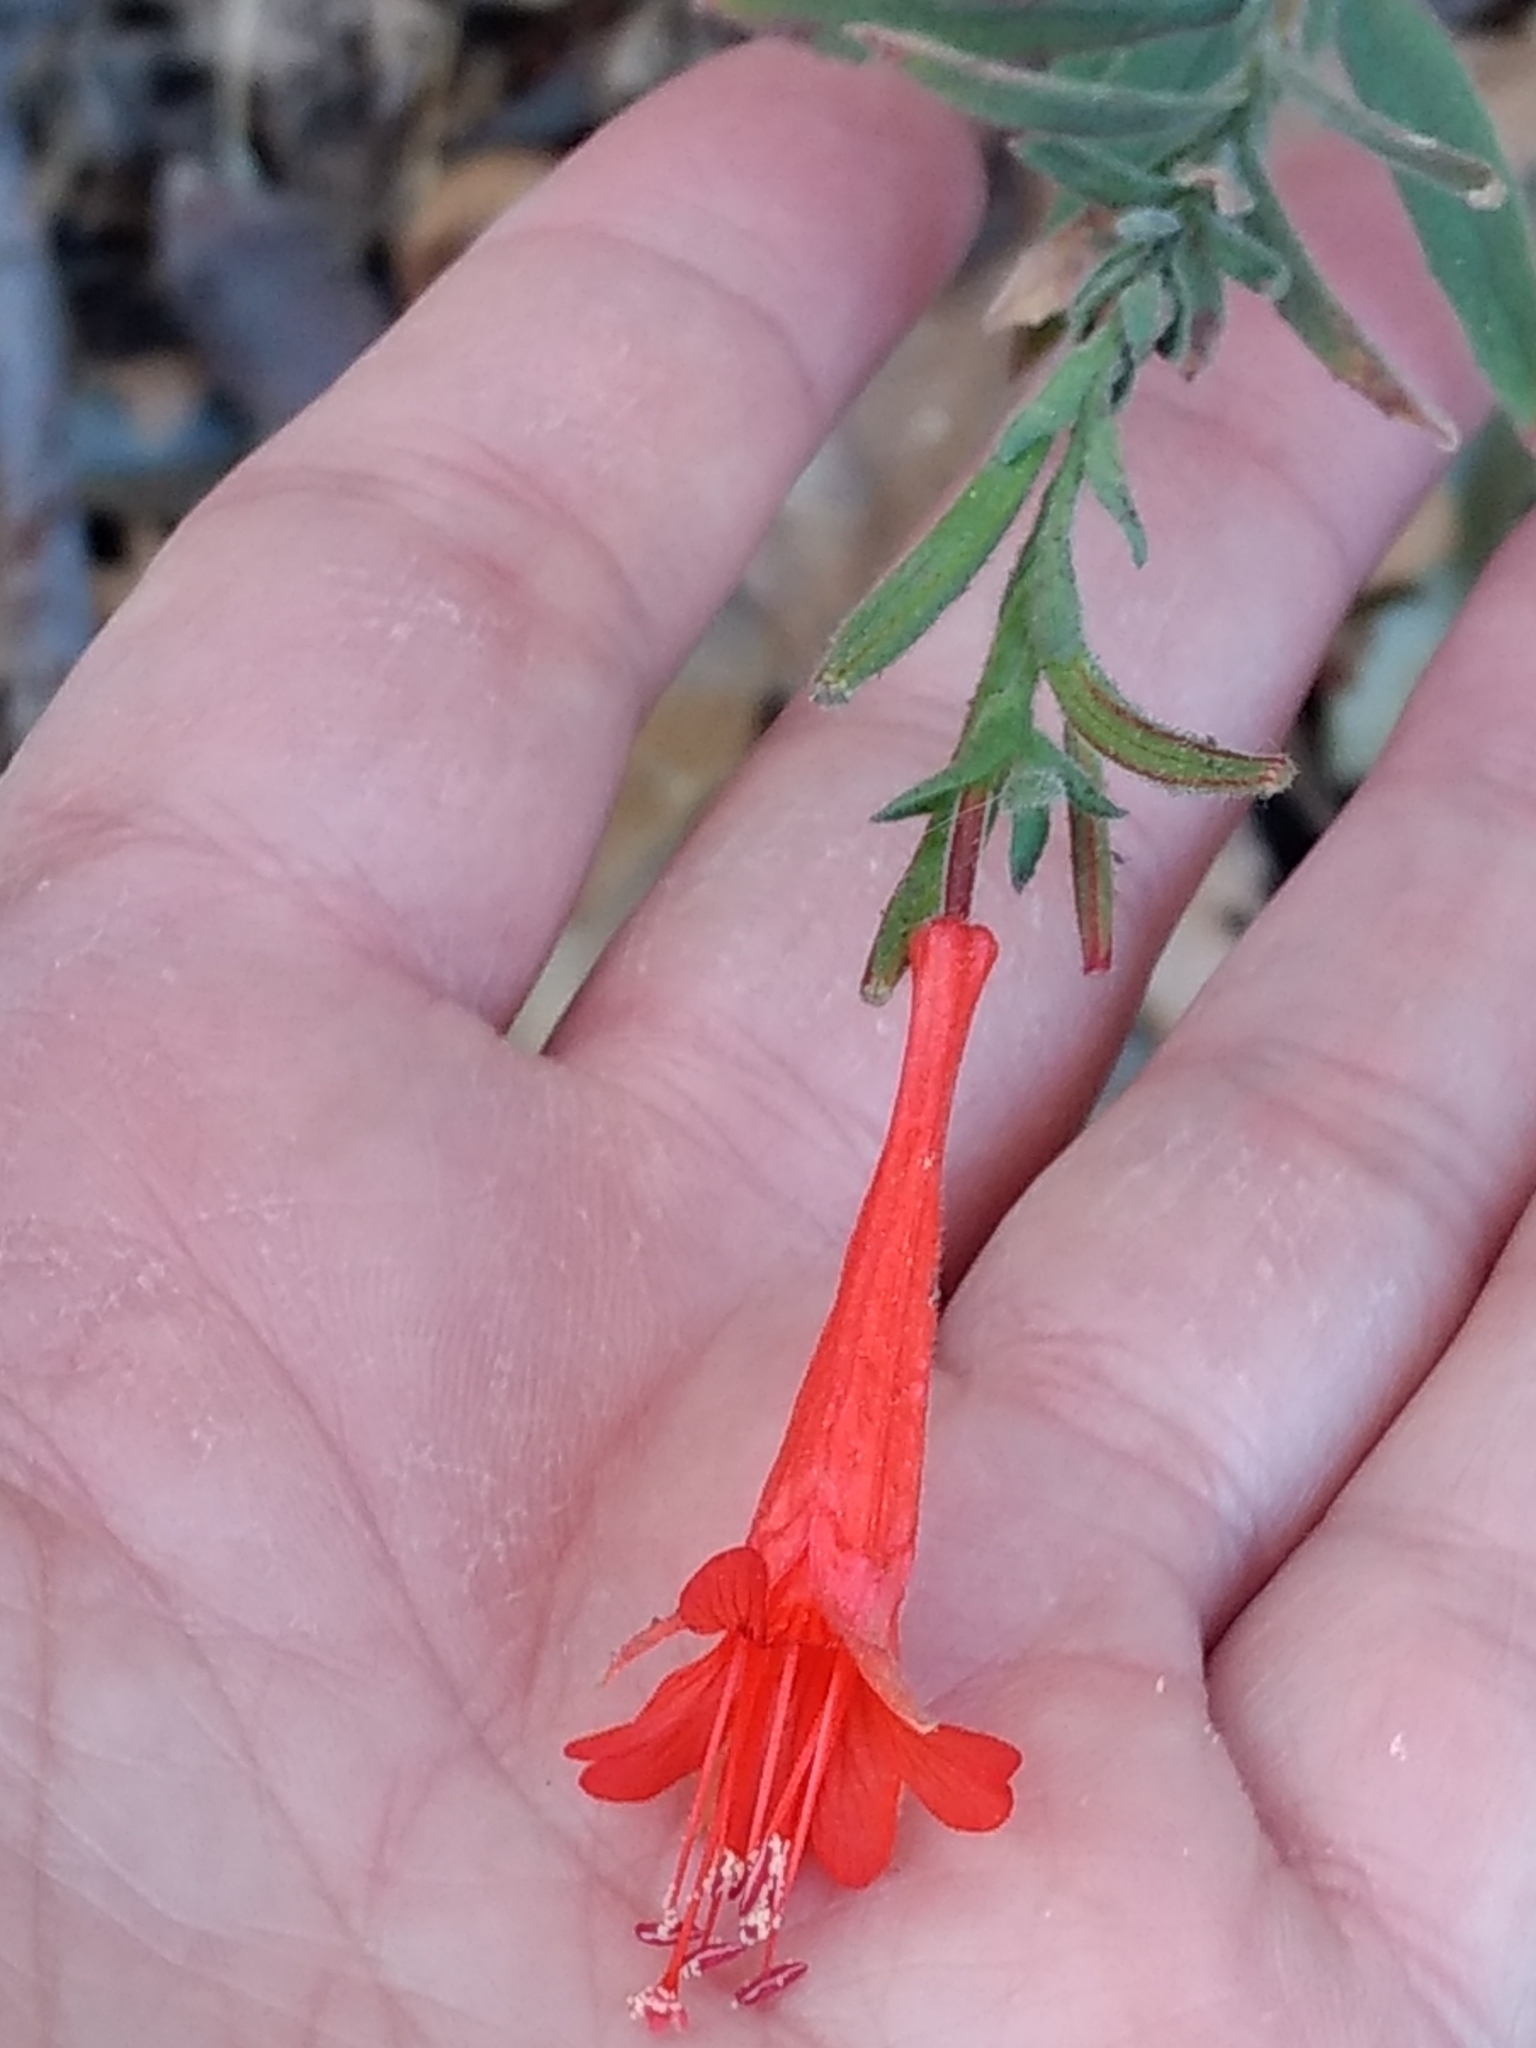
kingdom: Plantae
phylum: Tracheophyta
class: Magnoliopsida
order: Myrtales
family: Onagraceae
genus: Epilobium
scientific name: Epilobium canum
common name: California-fuchsia
